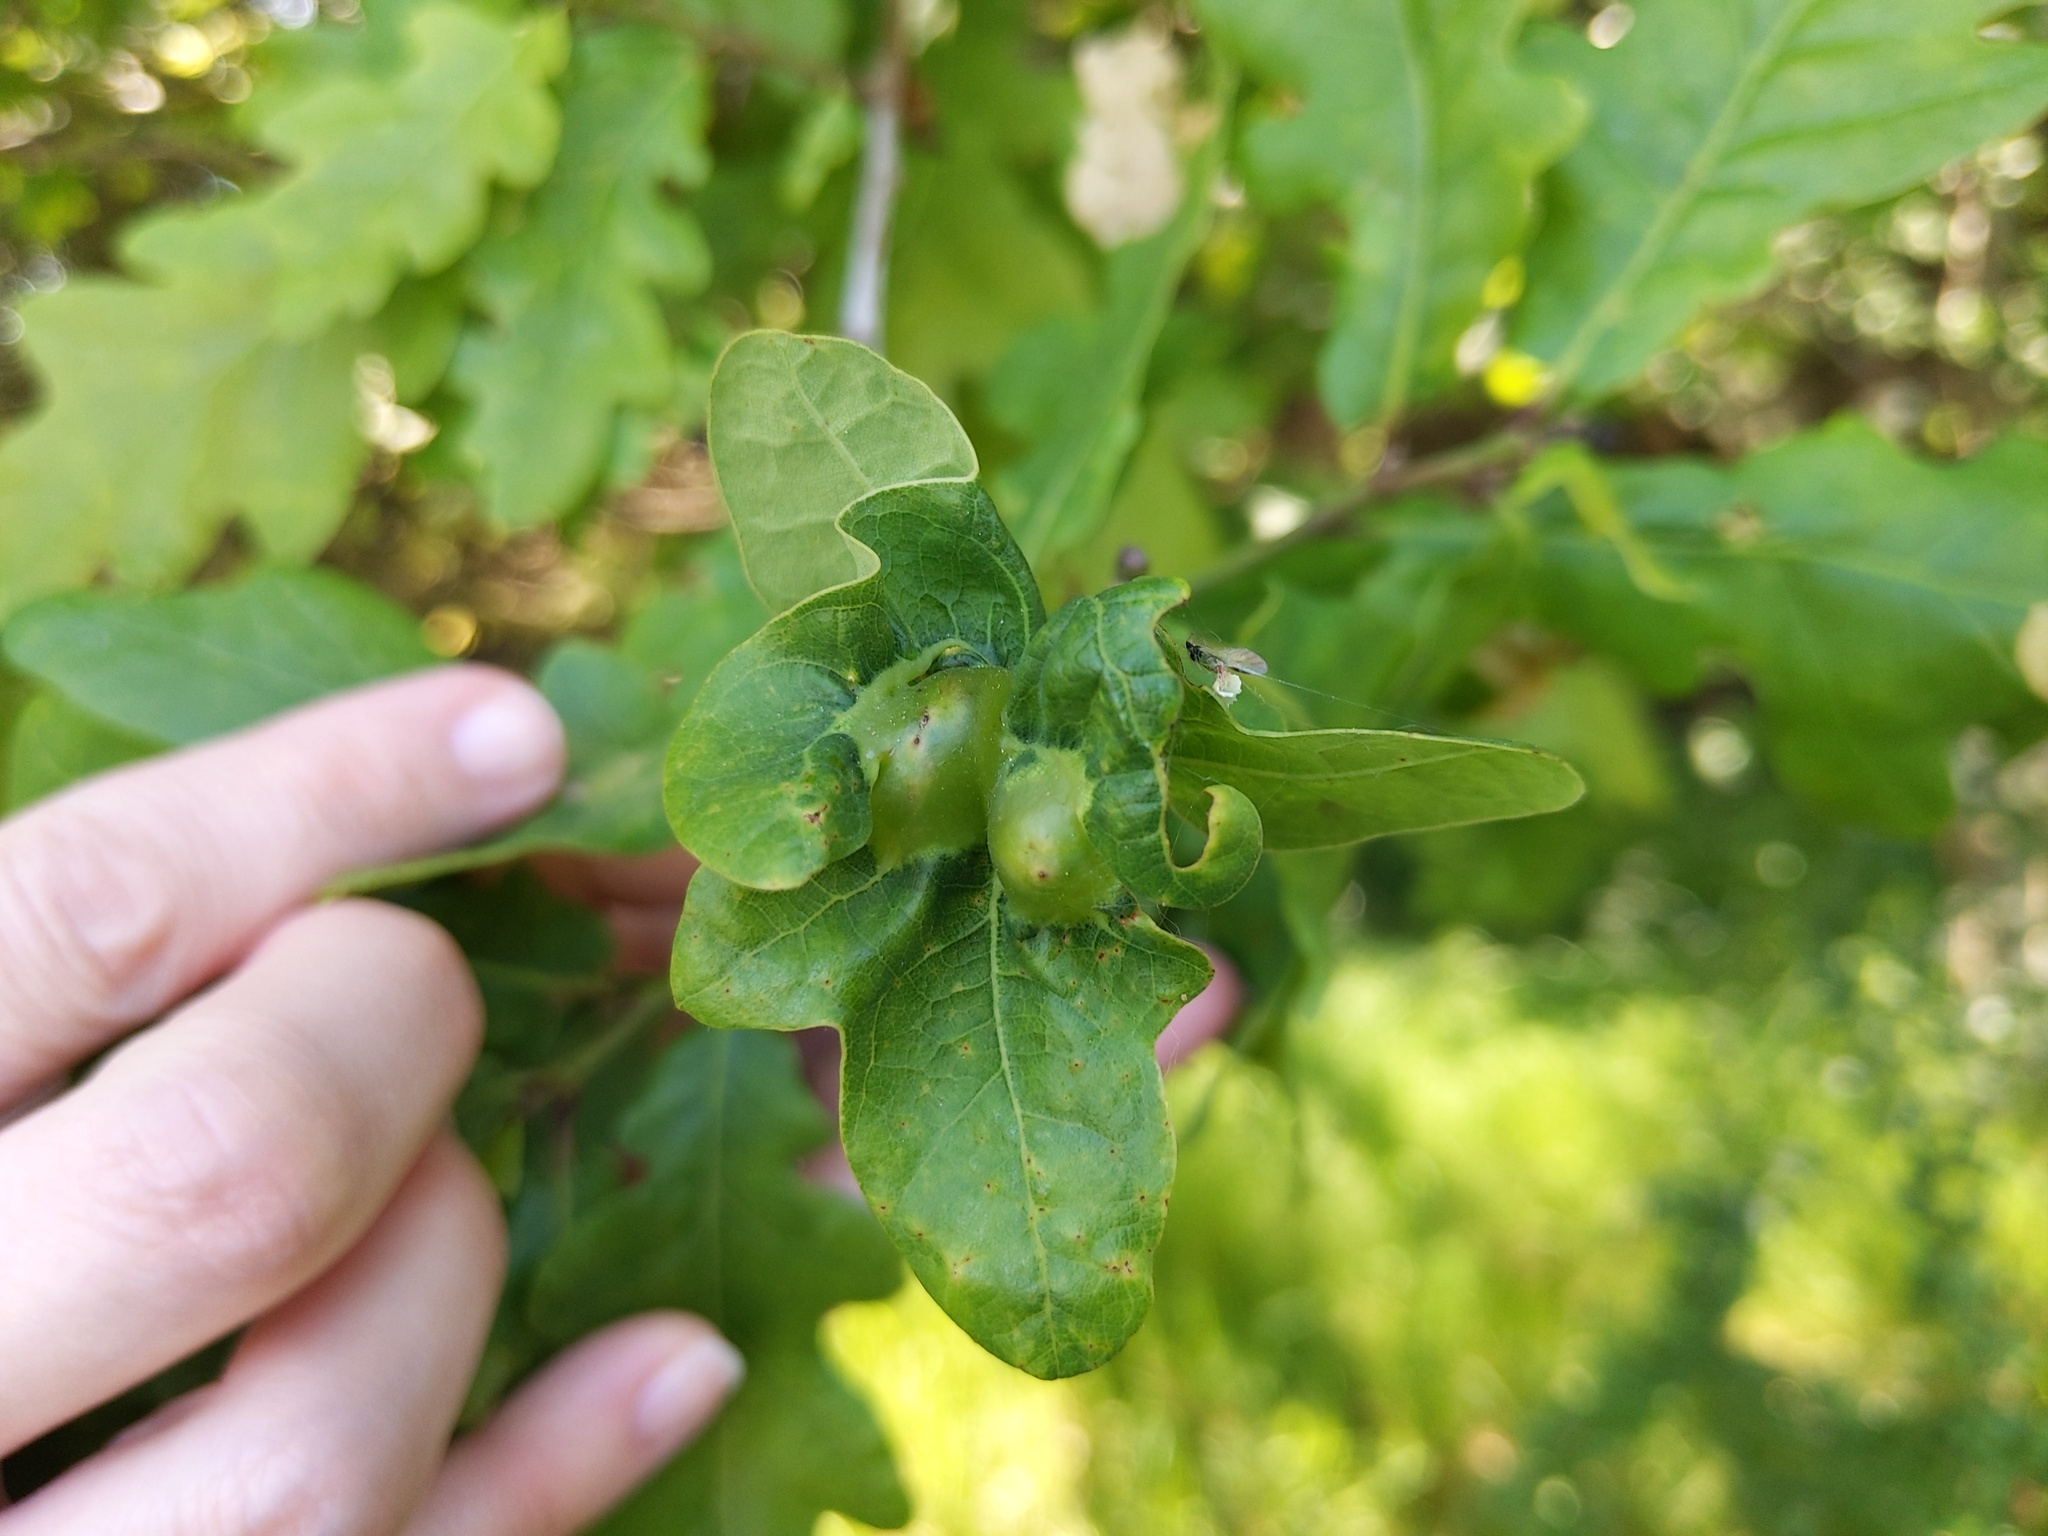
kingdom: Animalia
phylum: Arthropoda
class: Insecta
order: Hymenoptera
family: Cynipidae
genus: Andricus
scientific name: Andricus curvator
